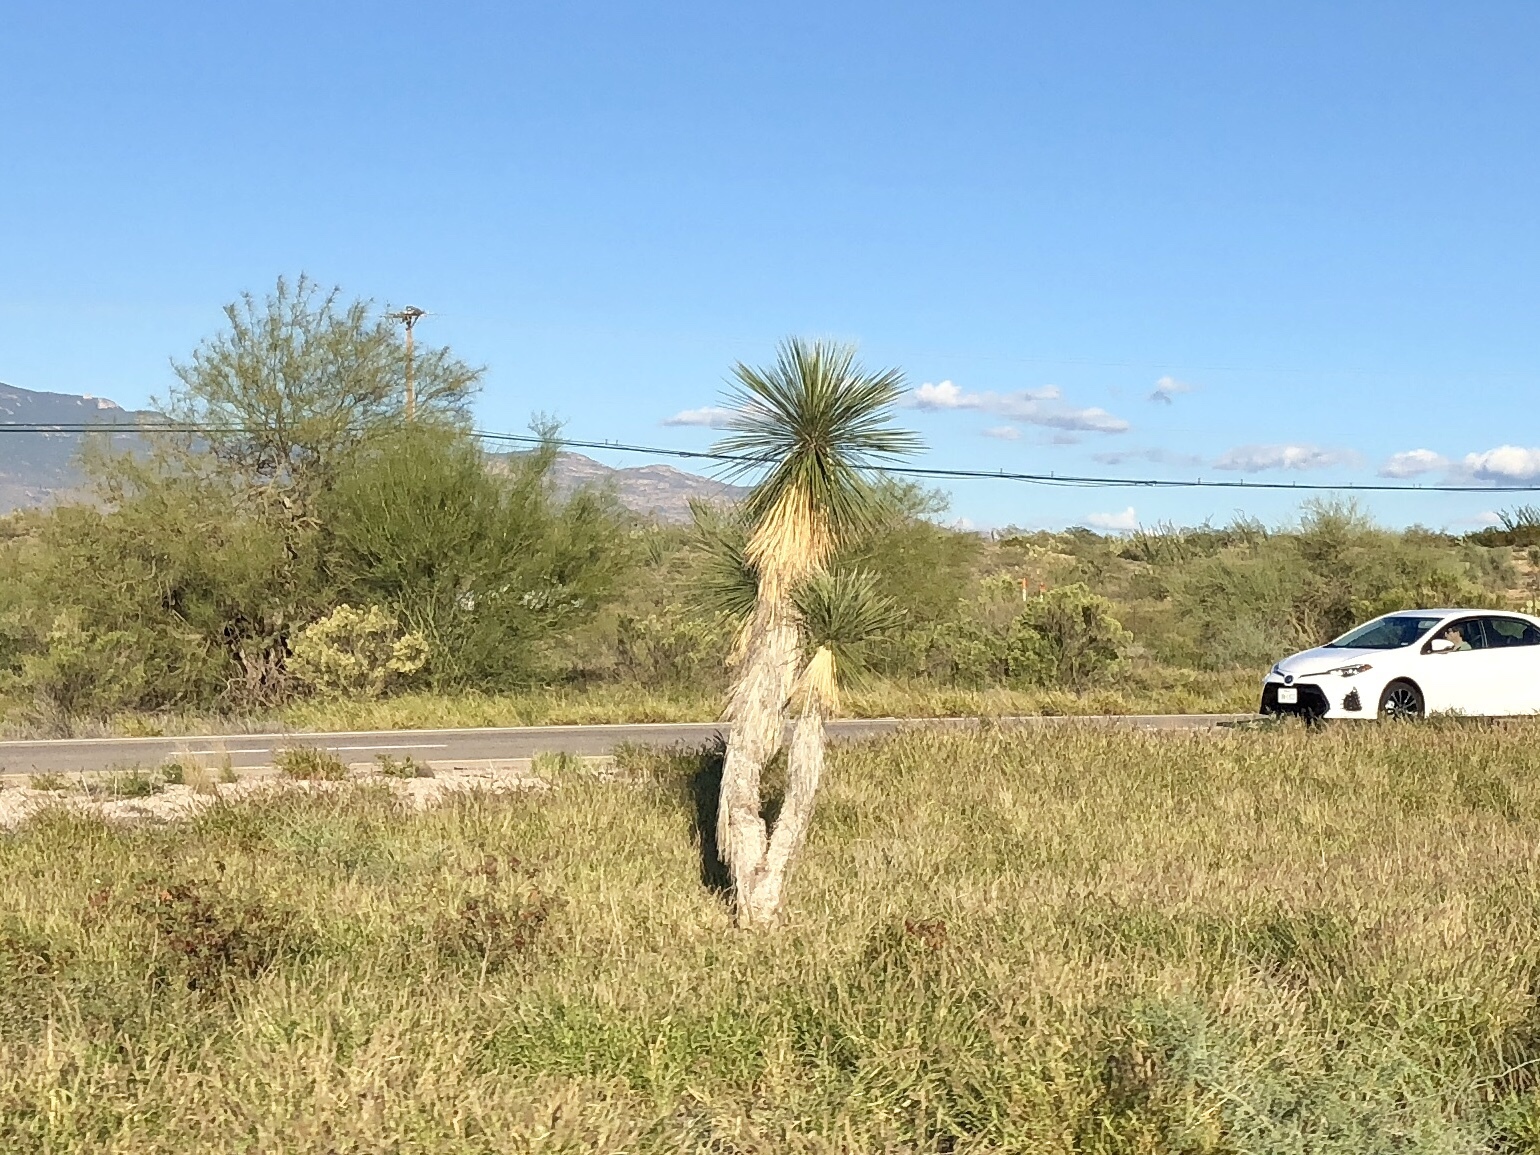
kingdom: Plantae
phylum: Tracheophyta
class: Liliopsida
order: Asparagales
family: Asparagaceae
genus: Yucca
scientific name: Yucca elata
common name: Palmella
